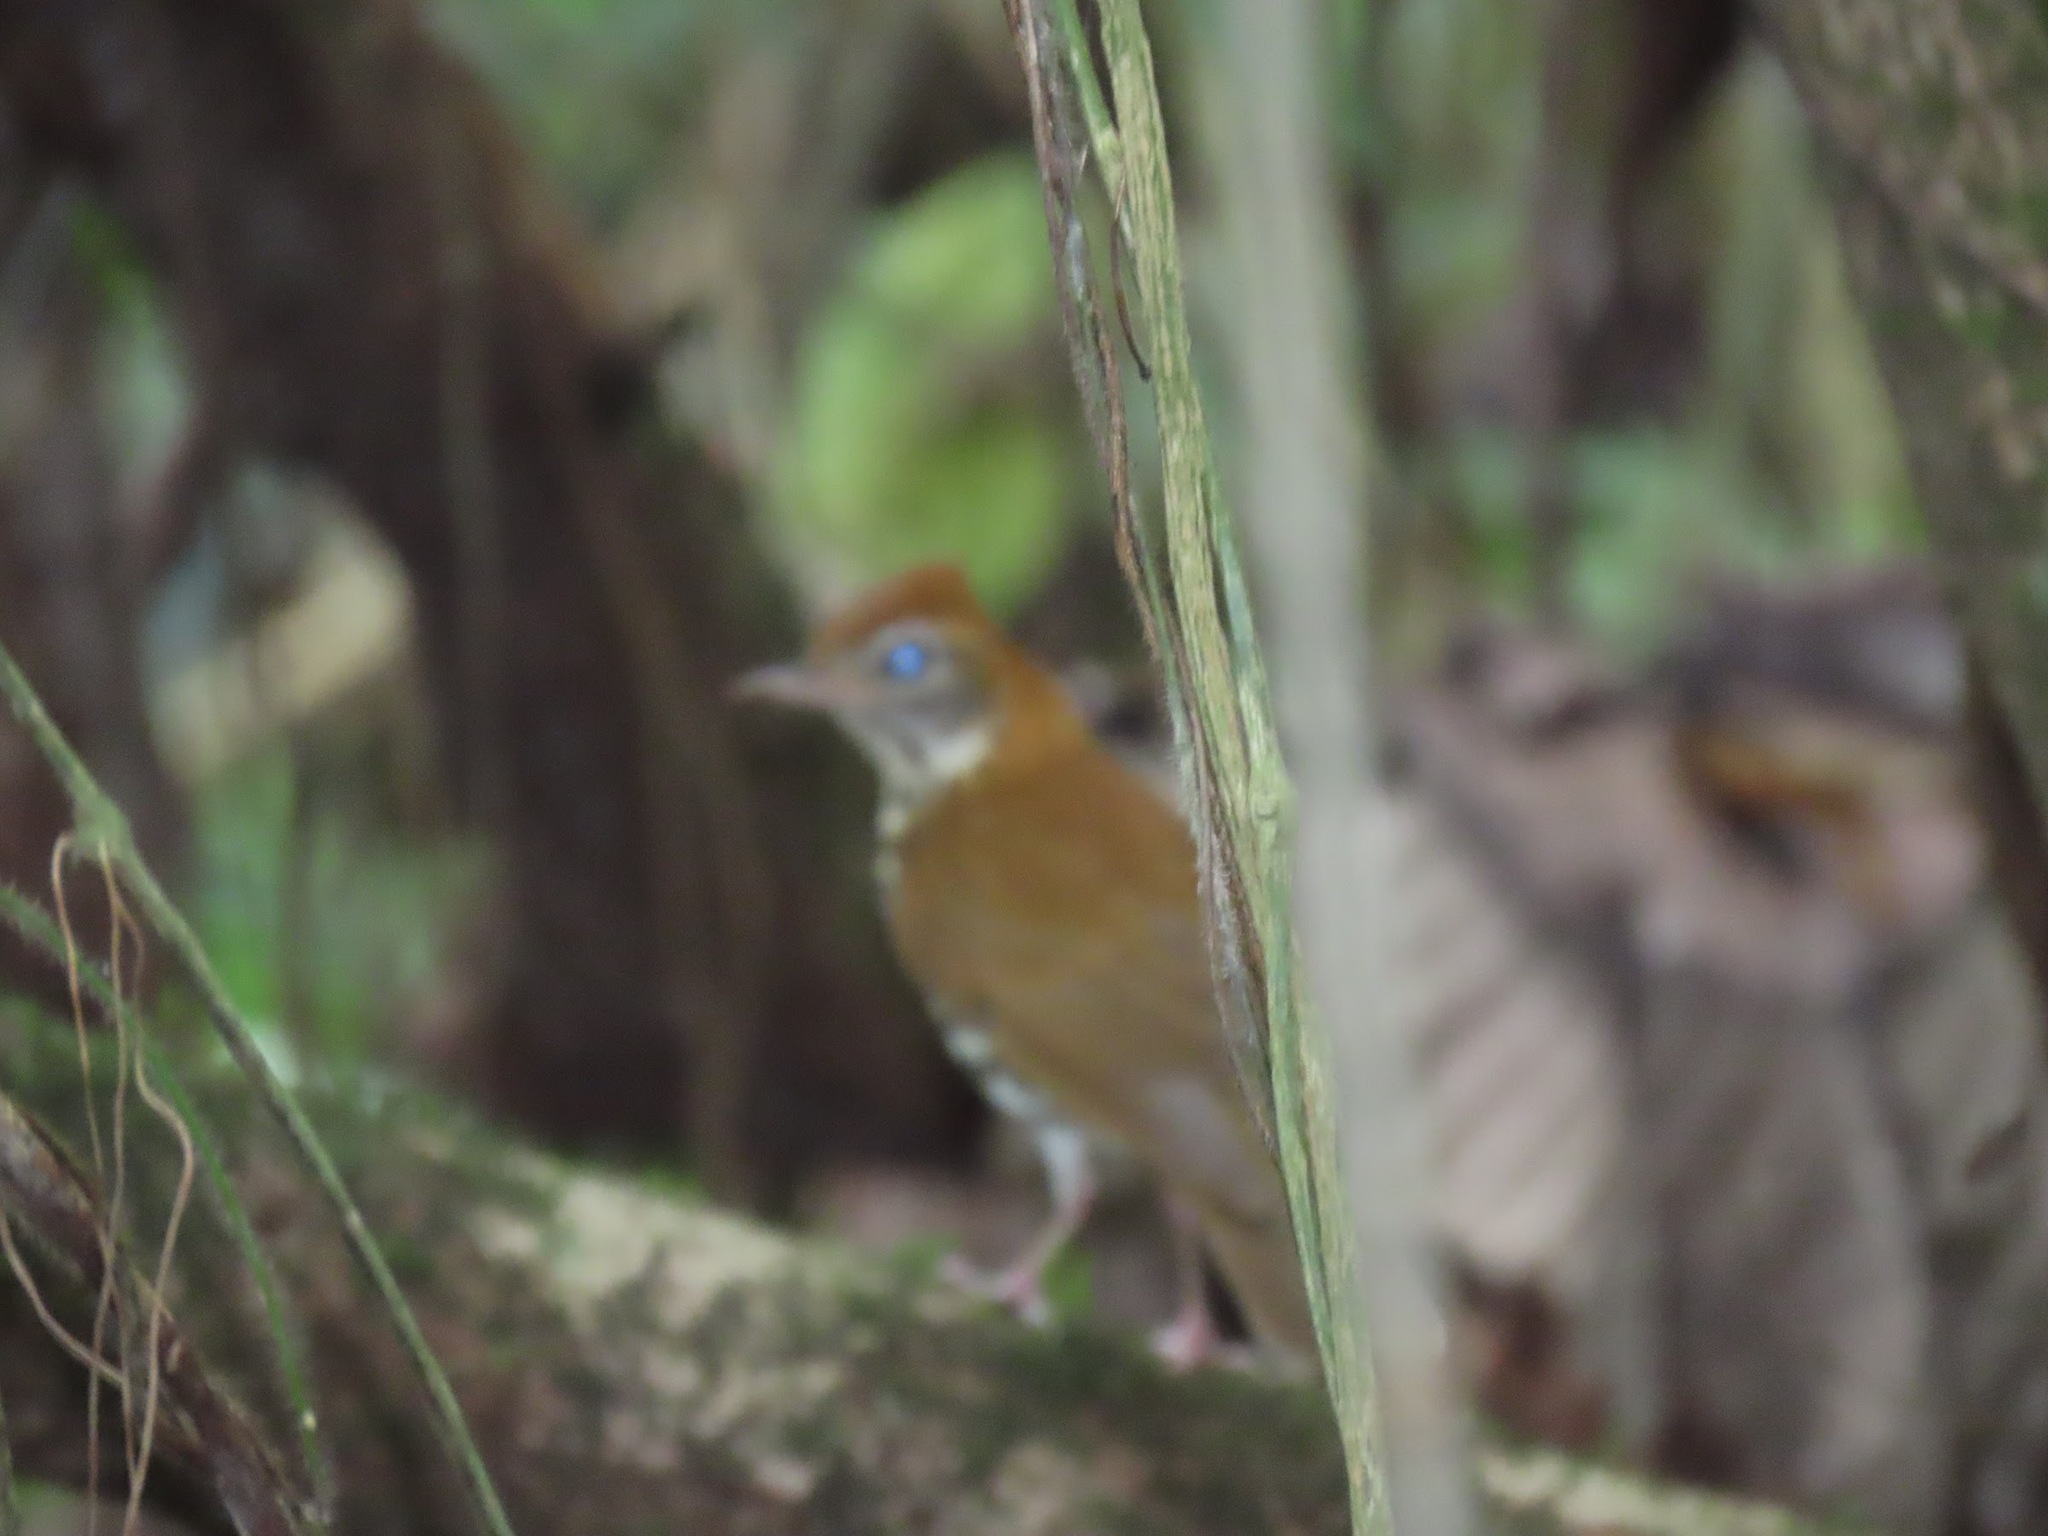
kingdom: Animalia
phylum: Chordata
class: Aves
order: Passeriformes
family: Turdidae
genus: Hylocichla
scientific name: Hylocichla mustelina
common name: Wood thrush
